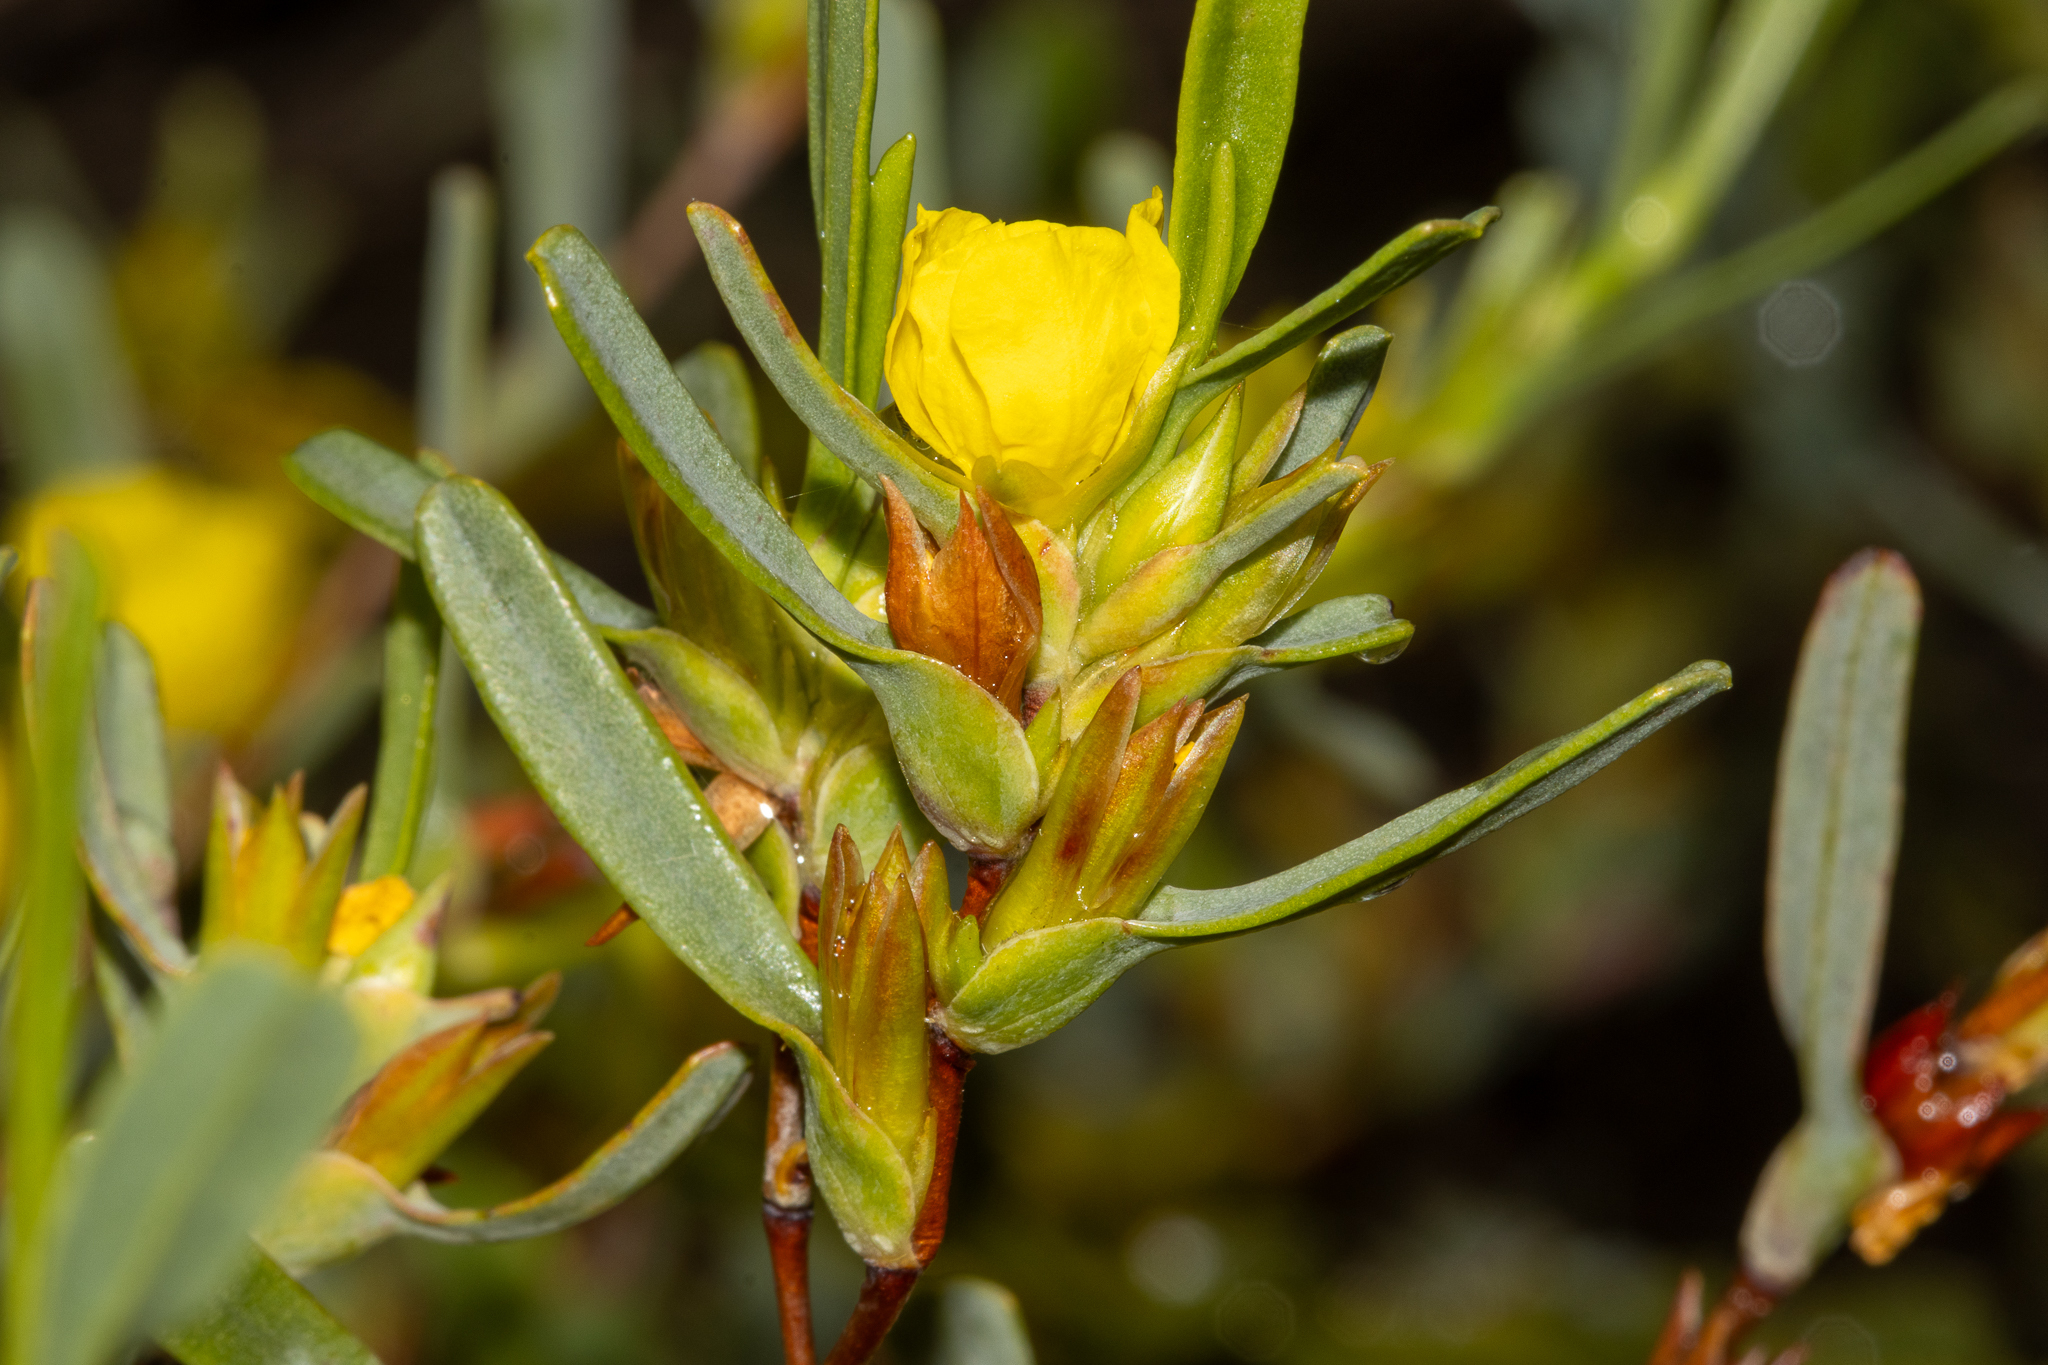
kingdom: Plantae
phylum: Tracheophyta
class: Magnoliopsida
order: Dilleniales
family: Dilleniaceae
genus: Hibbertia
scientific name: Hibbertia subvaginata
